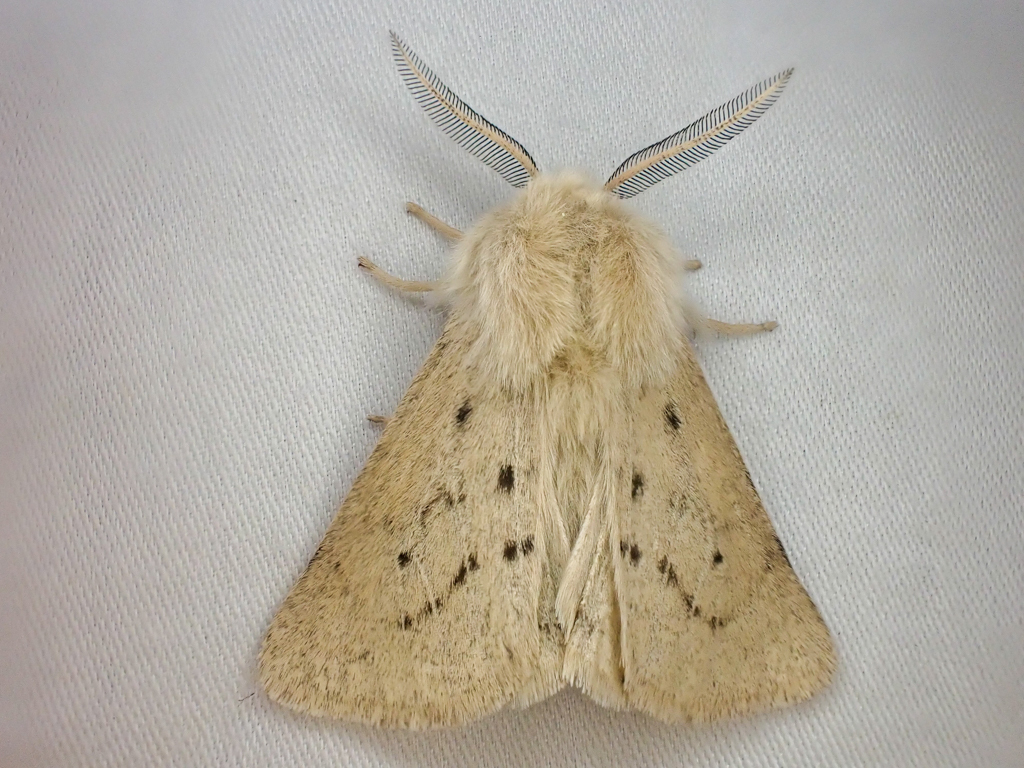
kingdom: Animalia
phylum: Arthropoda
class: Insecta
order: Lepidoptera
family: Erebidae
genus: Spilosoma
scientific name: Spilosoma vagans
